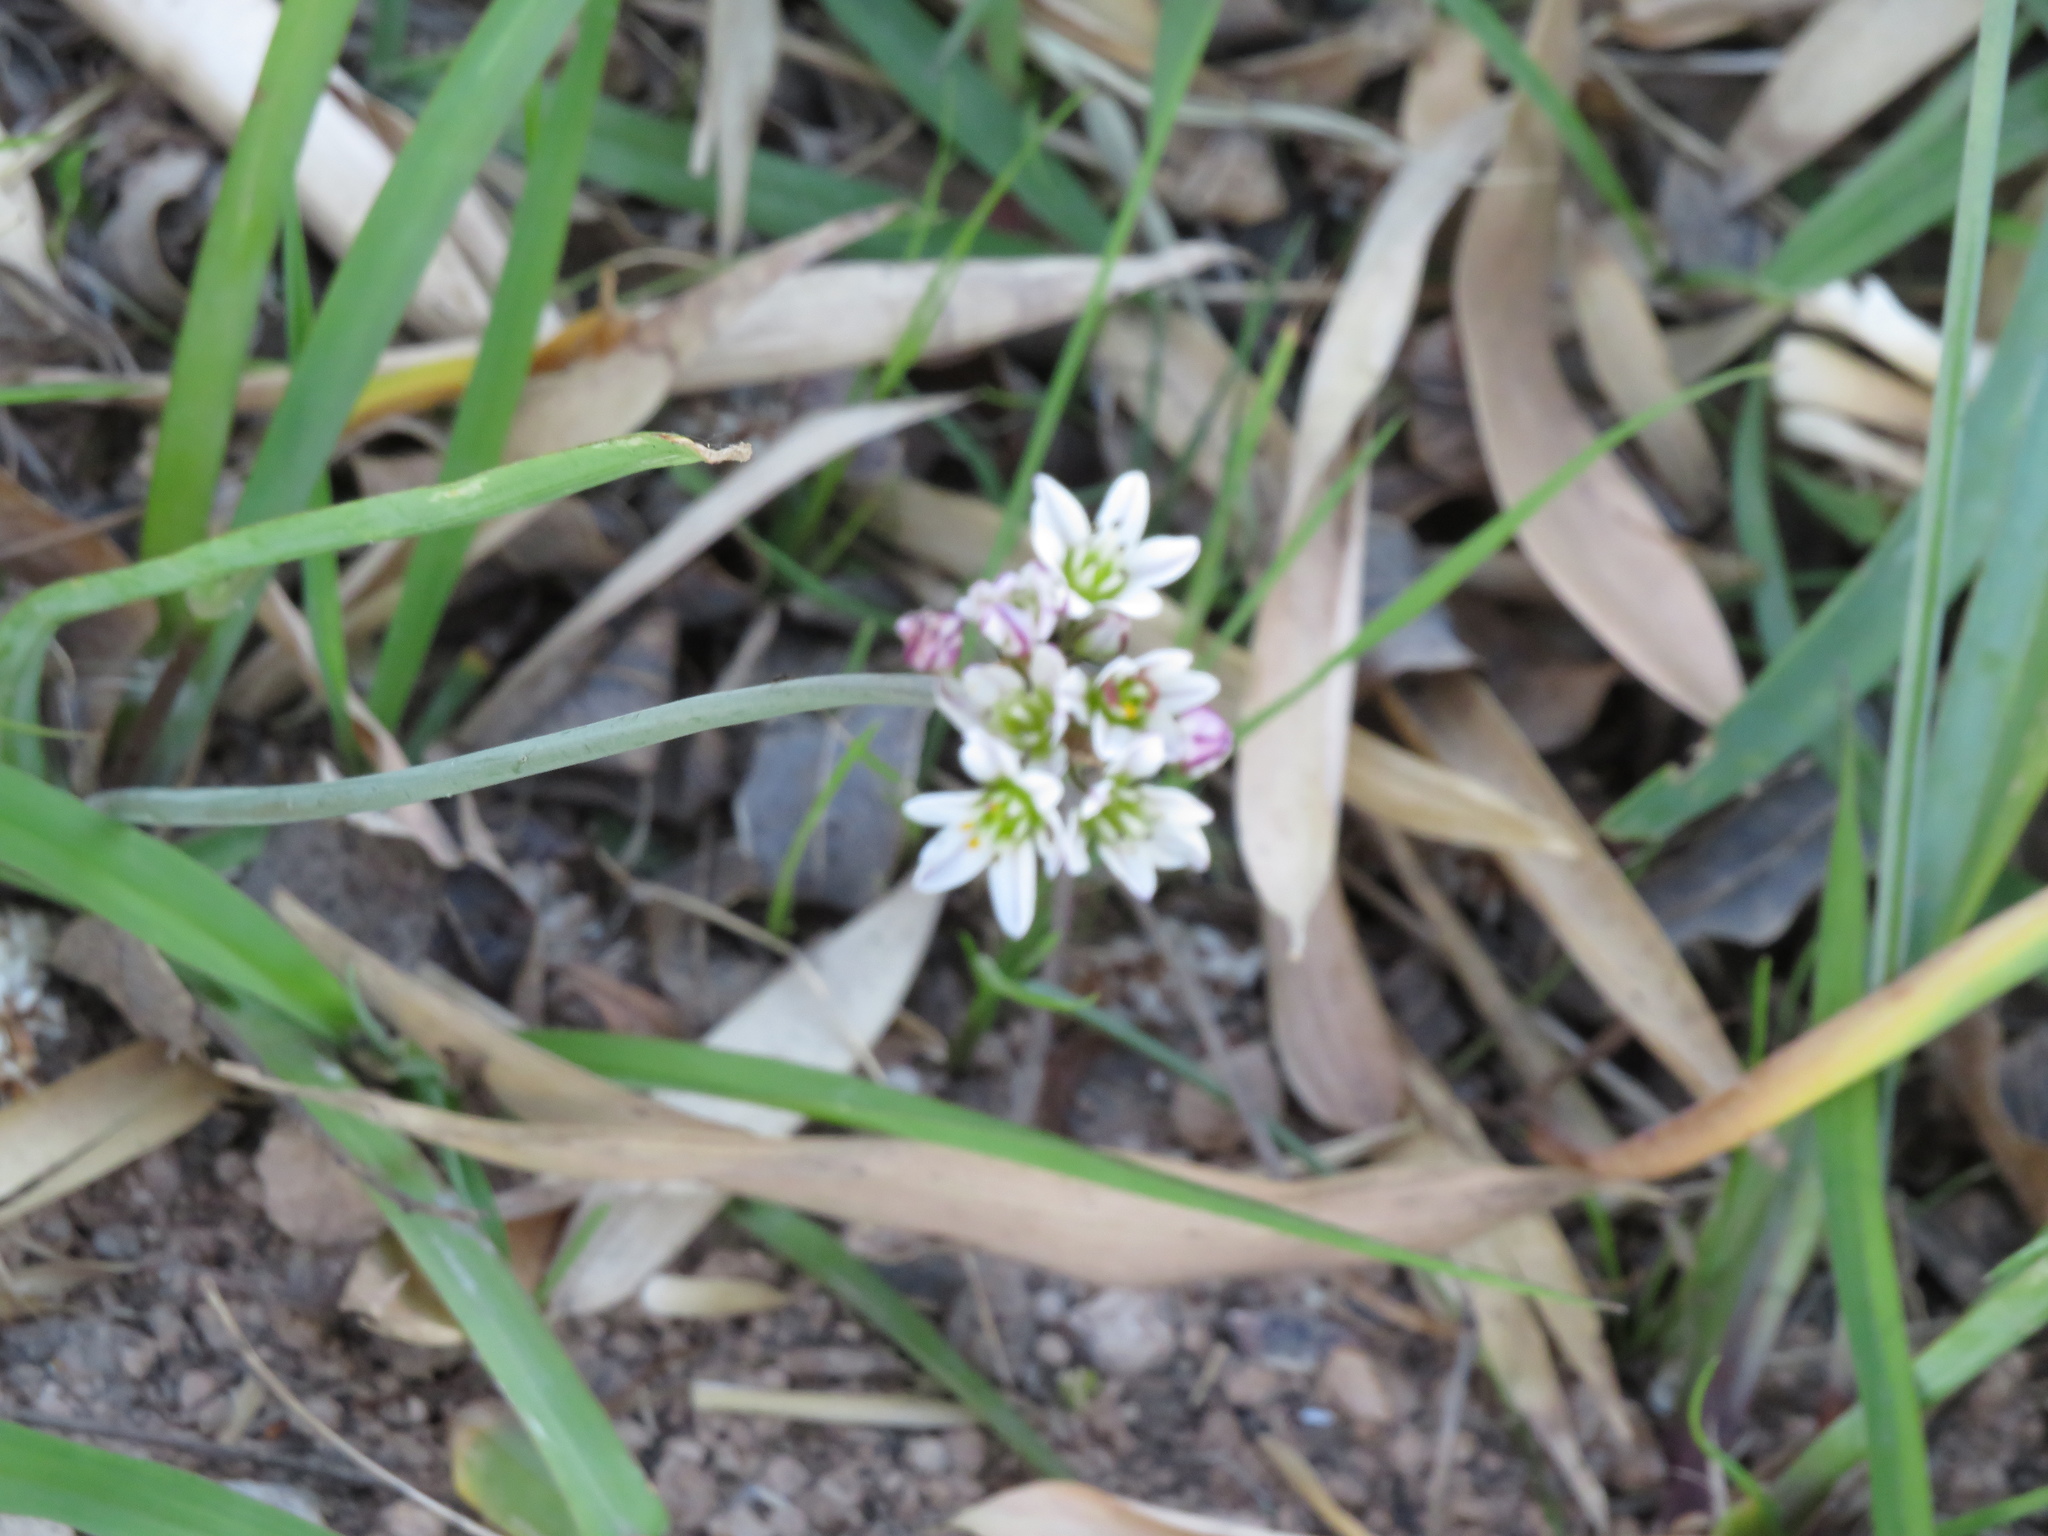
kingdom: Plantae
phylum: Tracheophyta
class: Liliopsida
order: Asparagales
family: Amaryllidaceae
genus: Nothoscordum
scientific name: Nothoscordum gracile
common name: Slender false garlic
